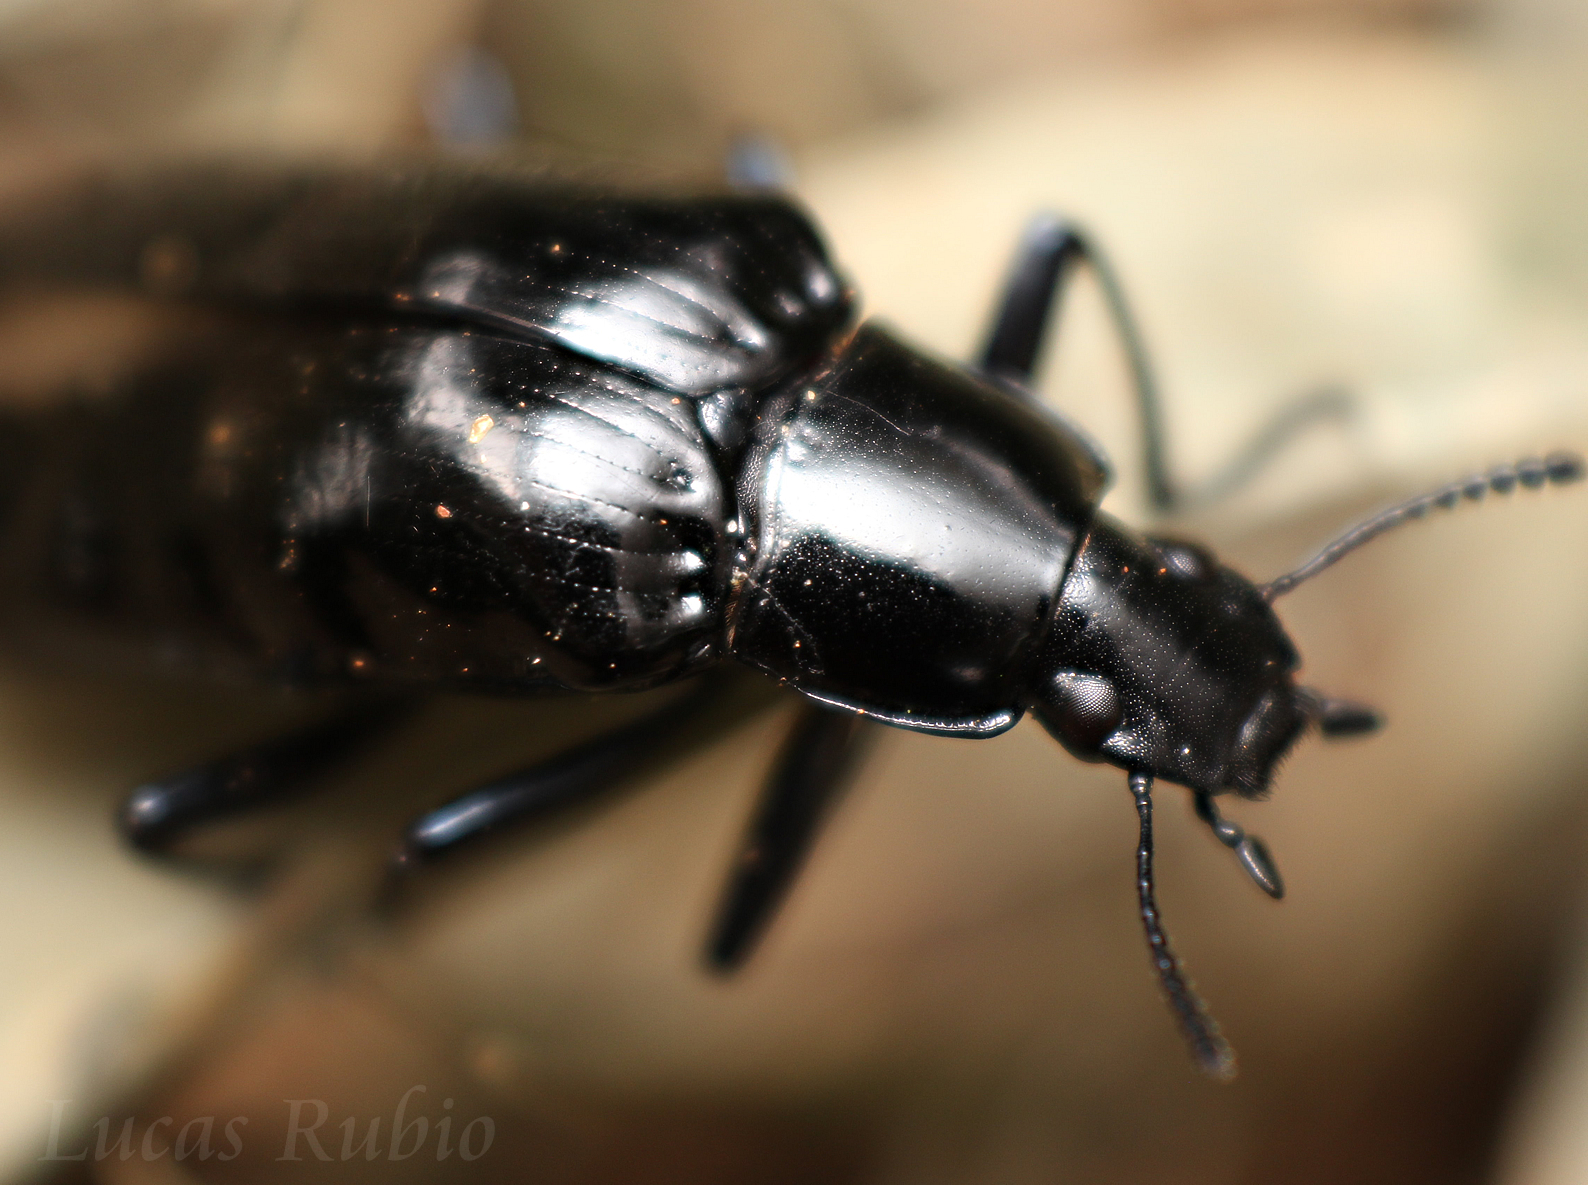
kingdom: Animalia
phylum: Arthropoda
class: Insecta
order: Coleoptera
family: Tenebrionidae
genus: Blapida
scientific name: Blapida
